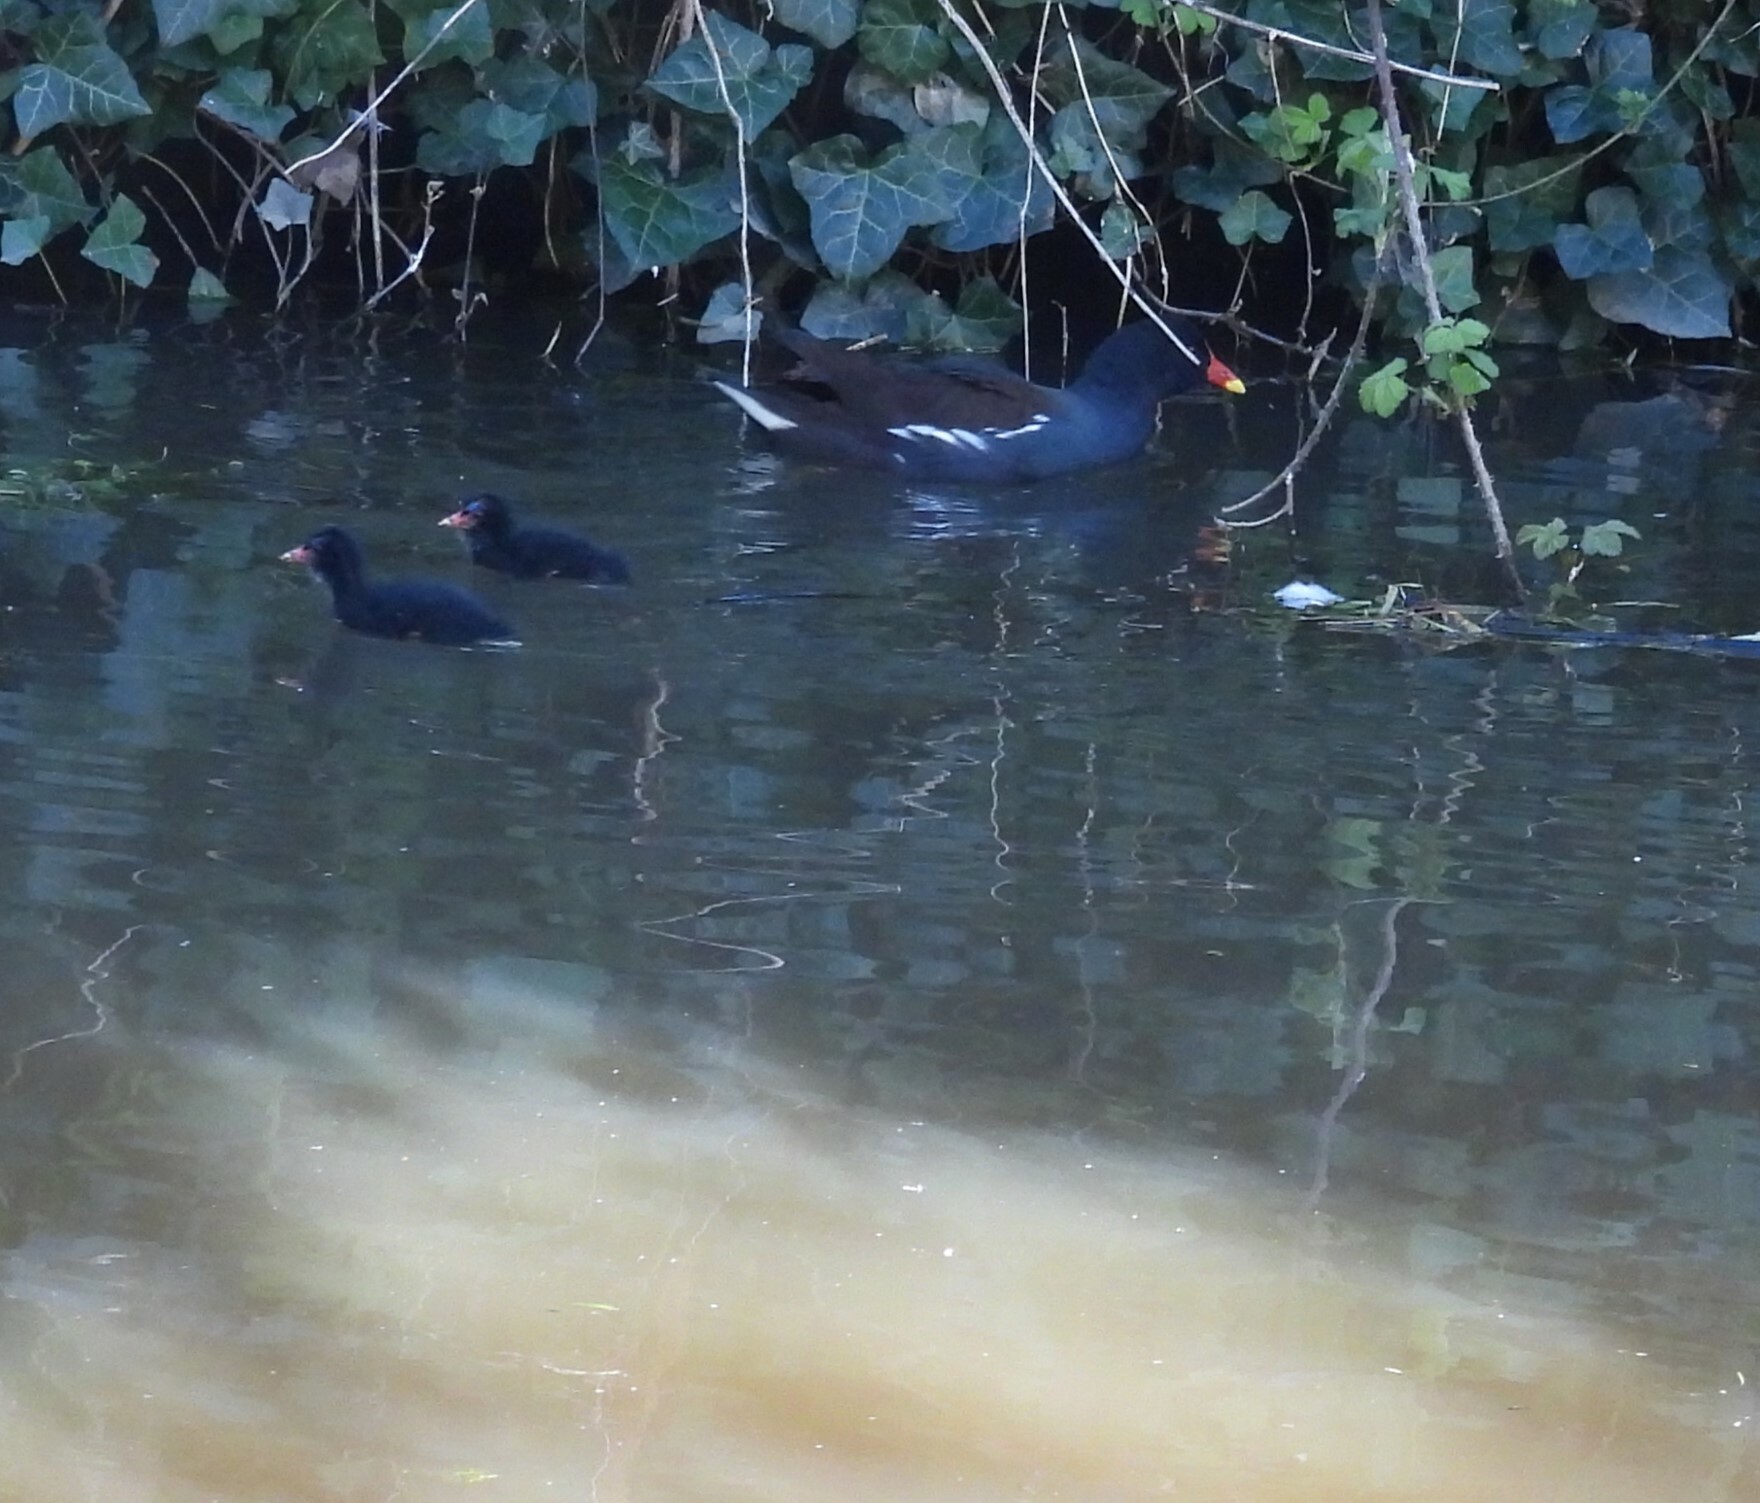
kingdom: Animalia
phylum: Chordata
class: Aves
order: Gruiformes
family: Rallidae
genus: Gallinula
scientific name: Gallinula chloropus
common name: Common moorhen
